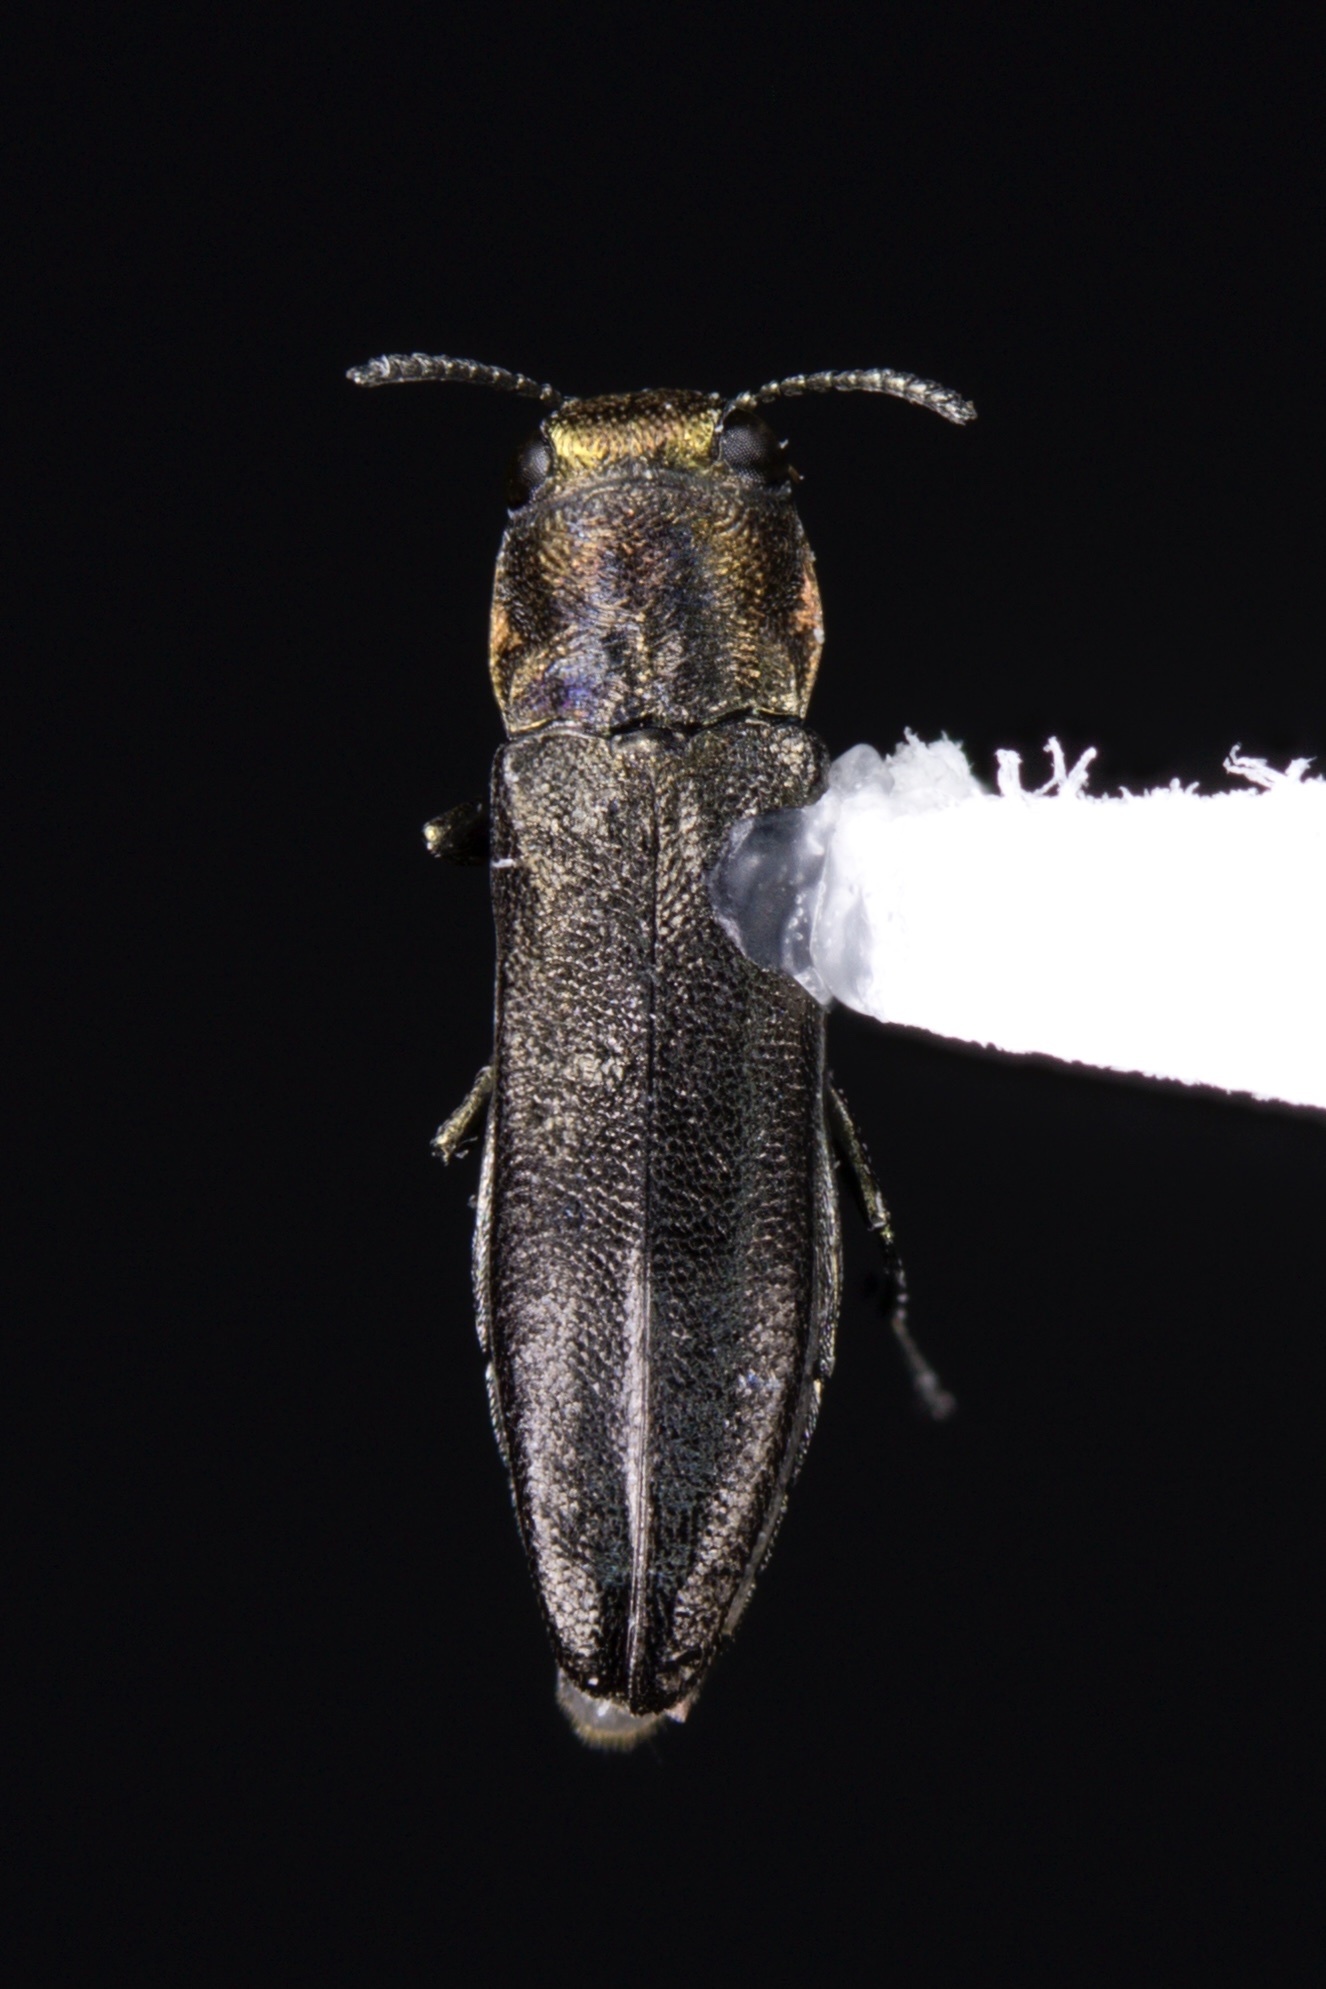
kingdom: Animalia
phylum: Arthropoda
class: Insecta
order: Coleoptera
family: Buprestidae
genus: Agrilus
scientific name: Agrilus arcuatus
